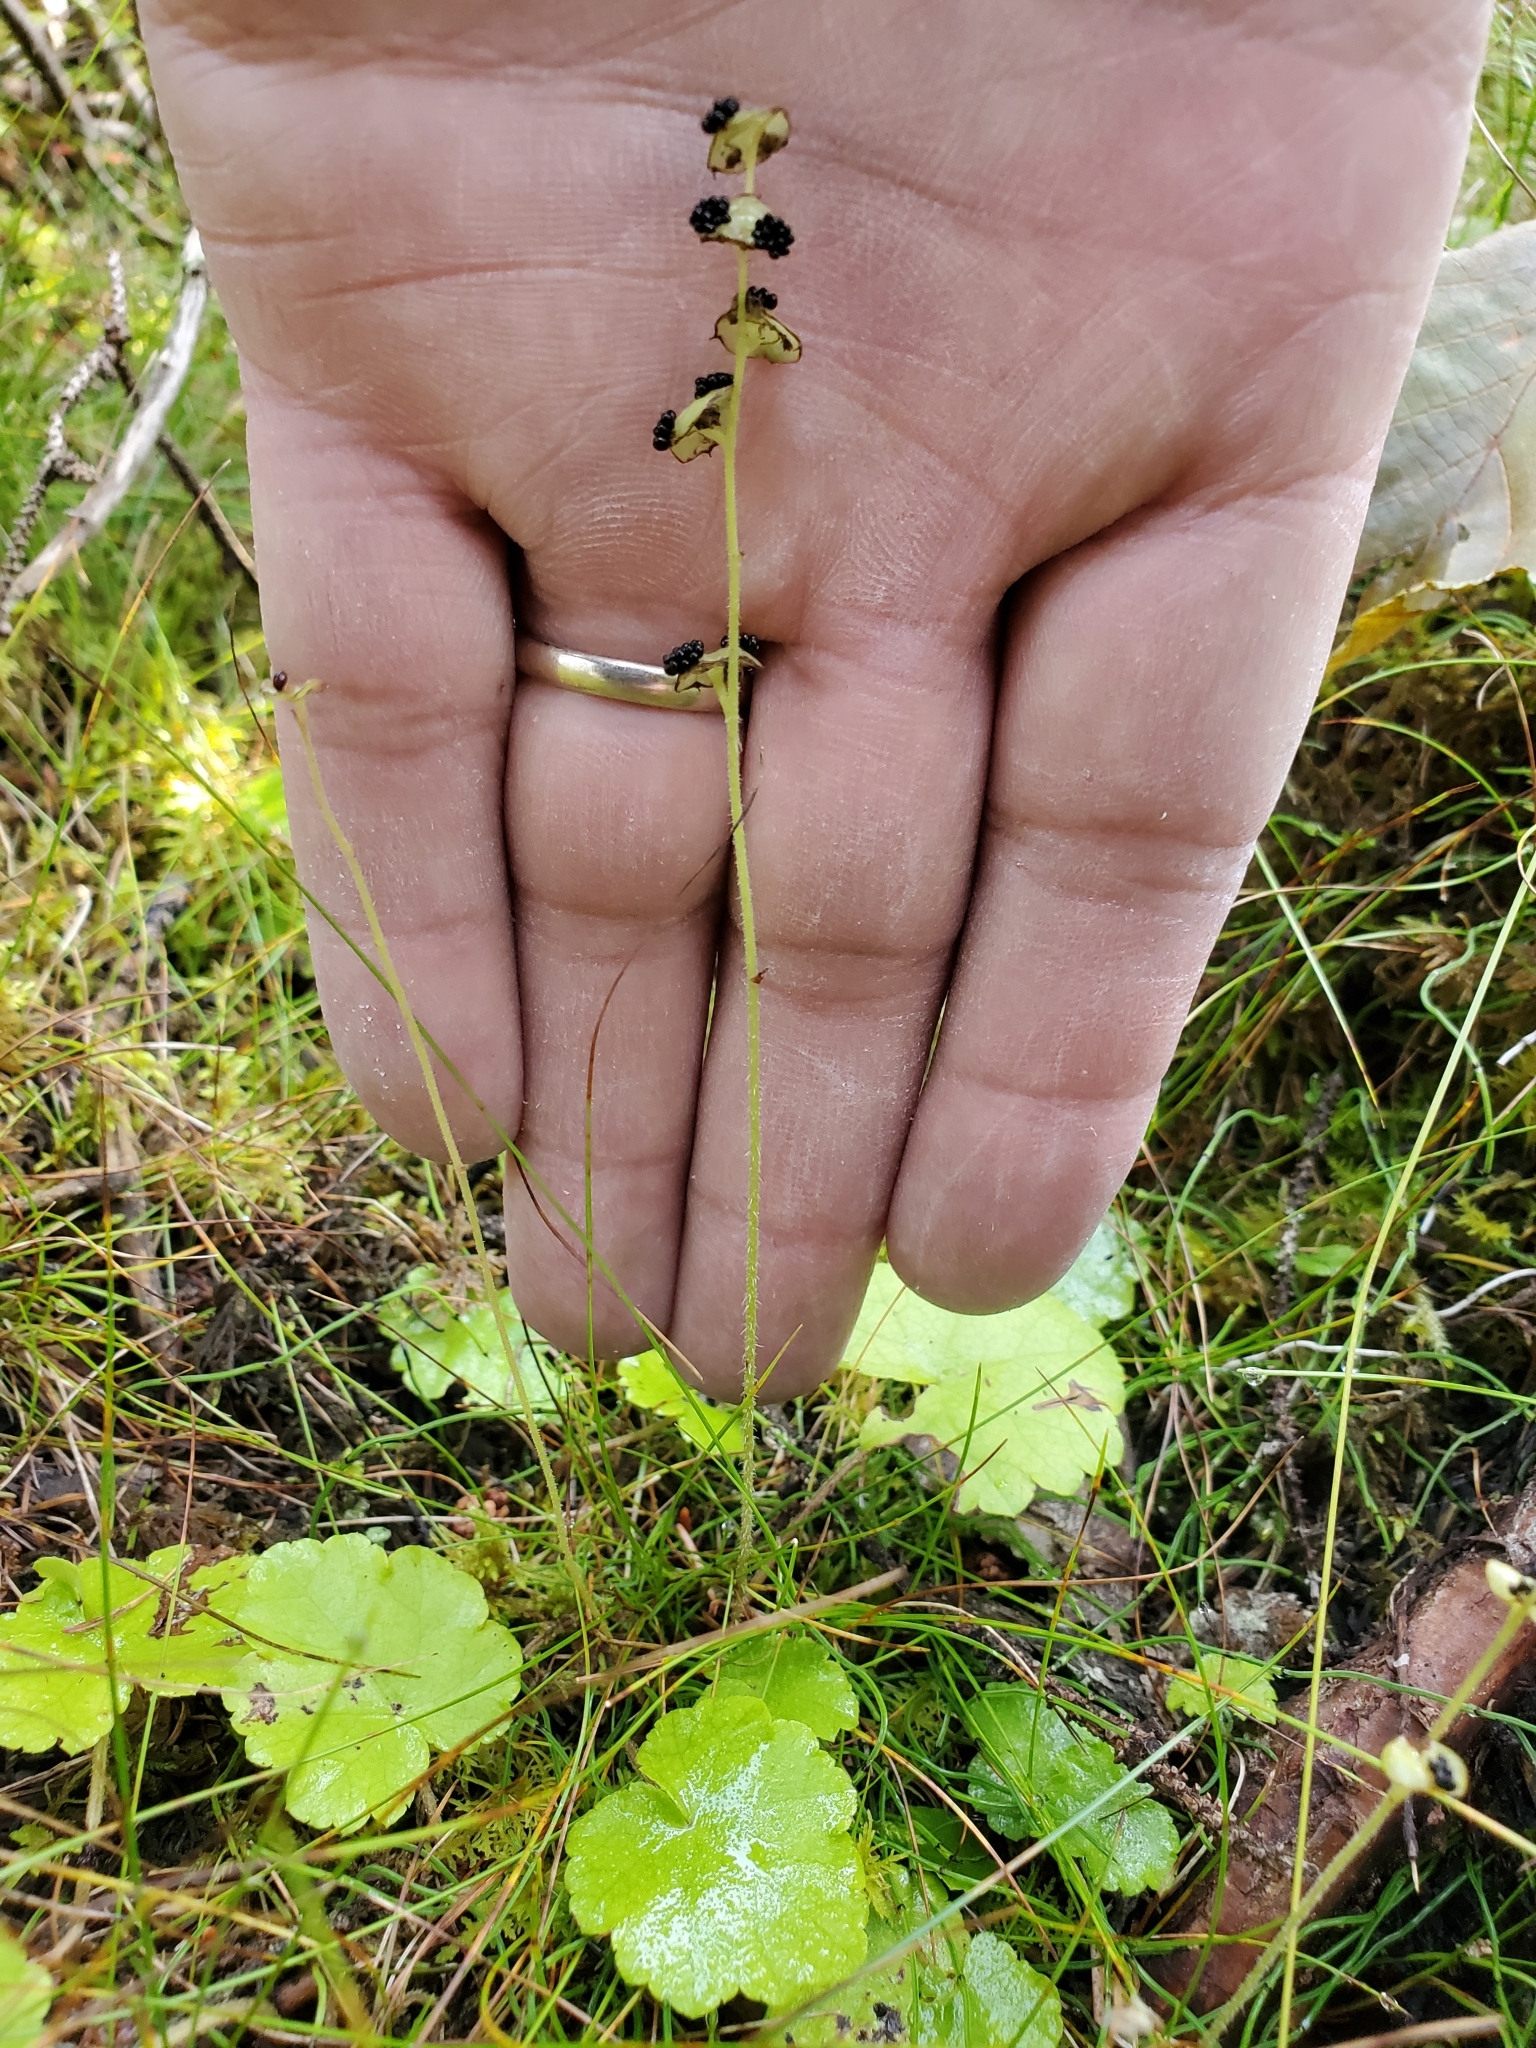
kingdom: Plantae
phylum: Tracheophyta
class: Magnoliopsida
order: Saxifragales
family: Saxifragaceae
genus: Mitella
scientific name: Mitella nuda
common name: Bare-stemmed bishop's-cap
